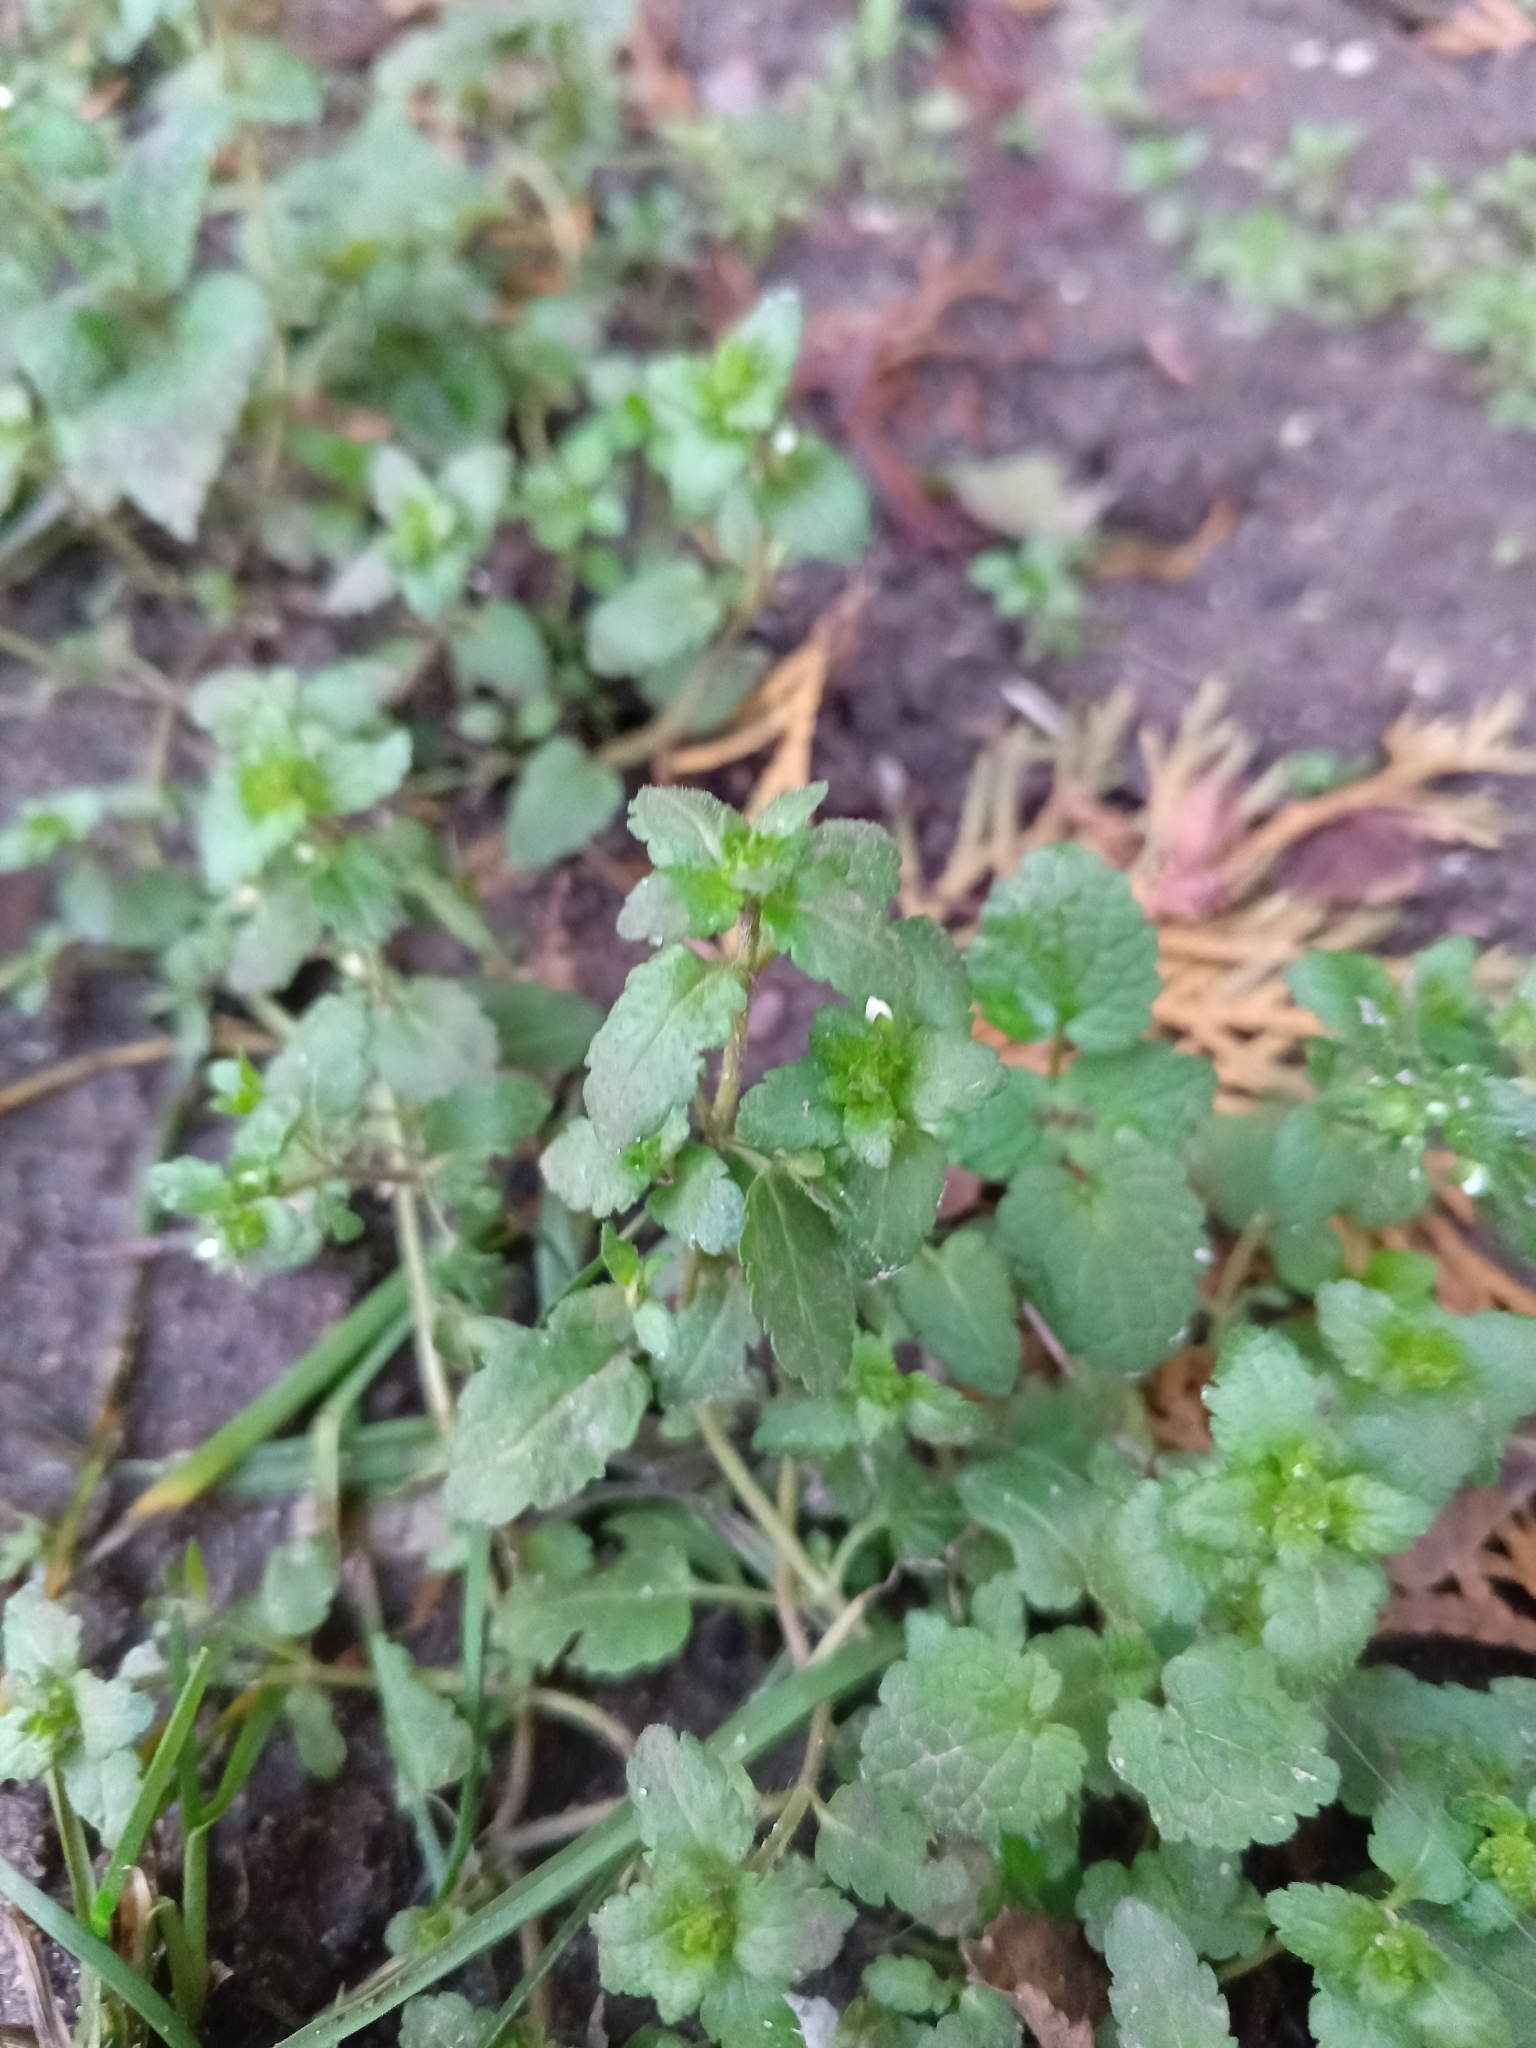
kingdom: Plantae
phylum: Tracheophyta
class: Magnoliopsida
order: Lamiales
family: Plantaginaceae
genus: Veronica
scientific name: Veronica agrestis
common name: Green field-speedwell
